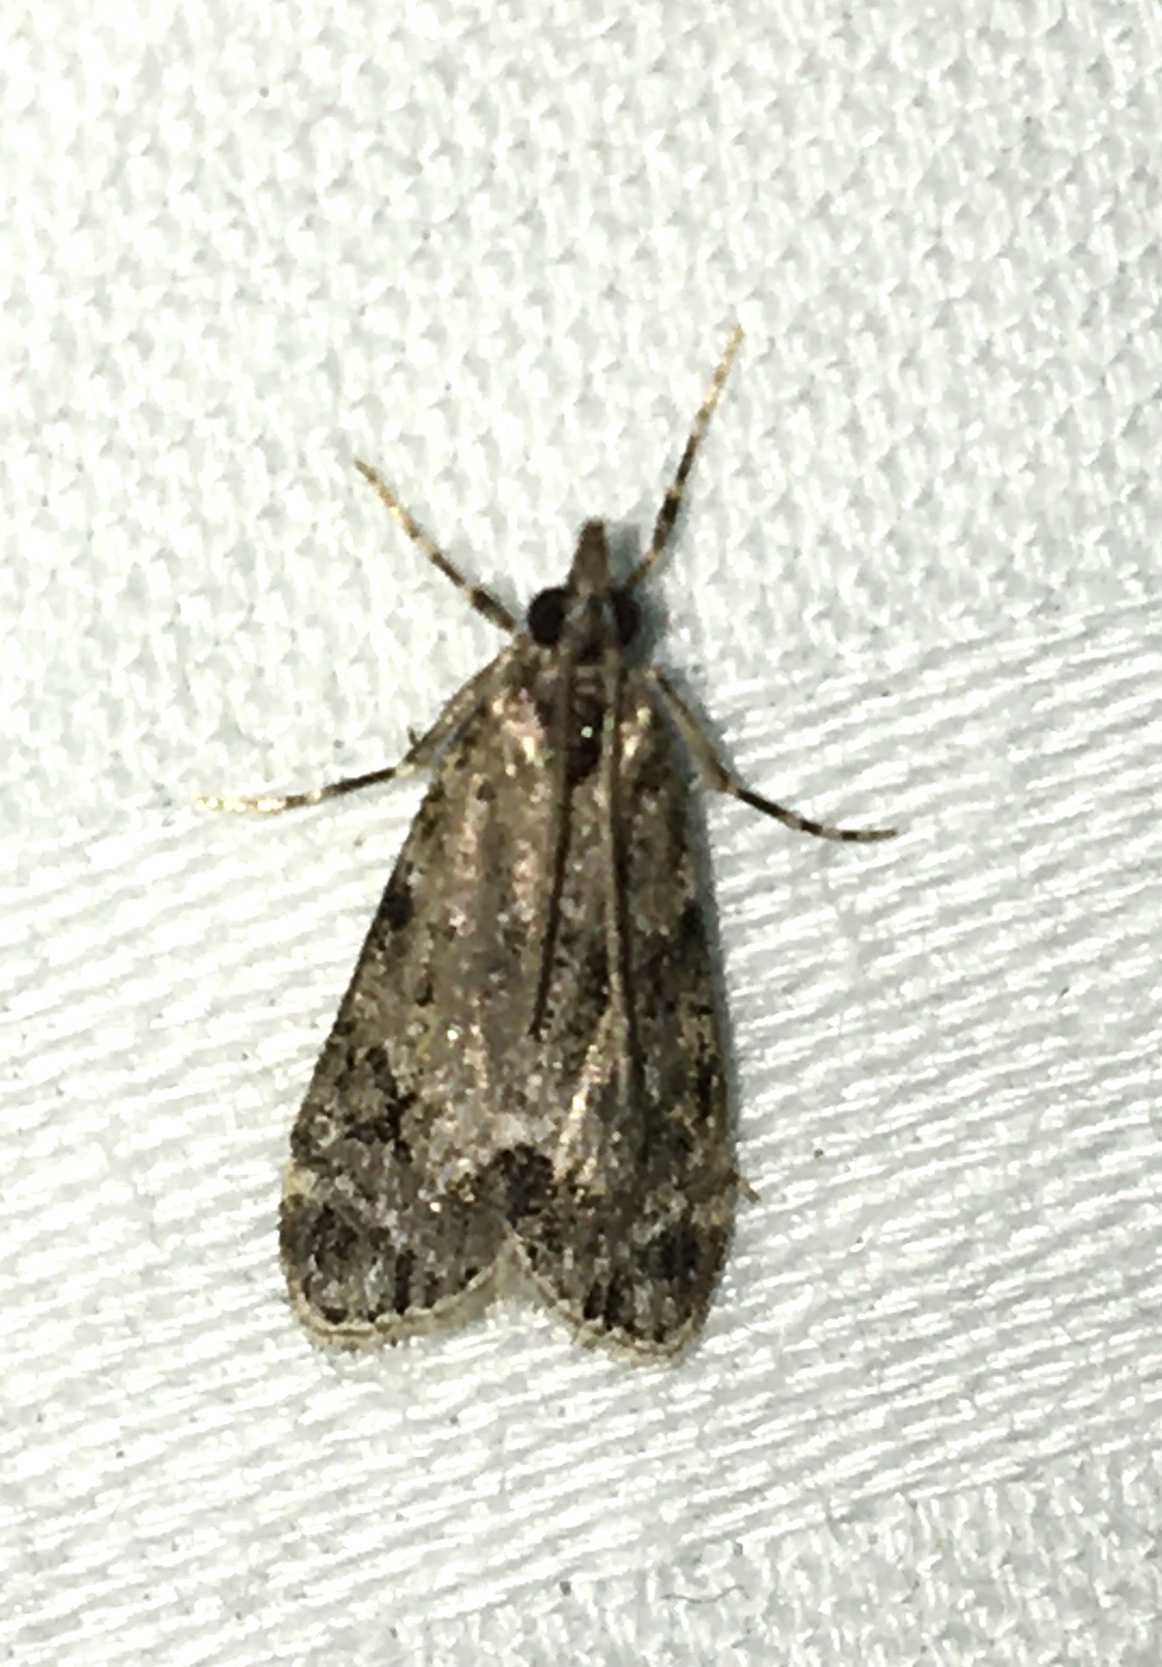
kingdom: Animalia
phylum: Arthropoda
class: Insecta
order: Lepidoptera
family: Crambidae
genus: Eudonia
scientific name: Eudonia mercurella
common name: Small grey
